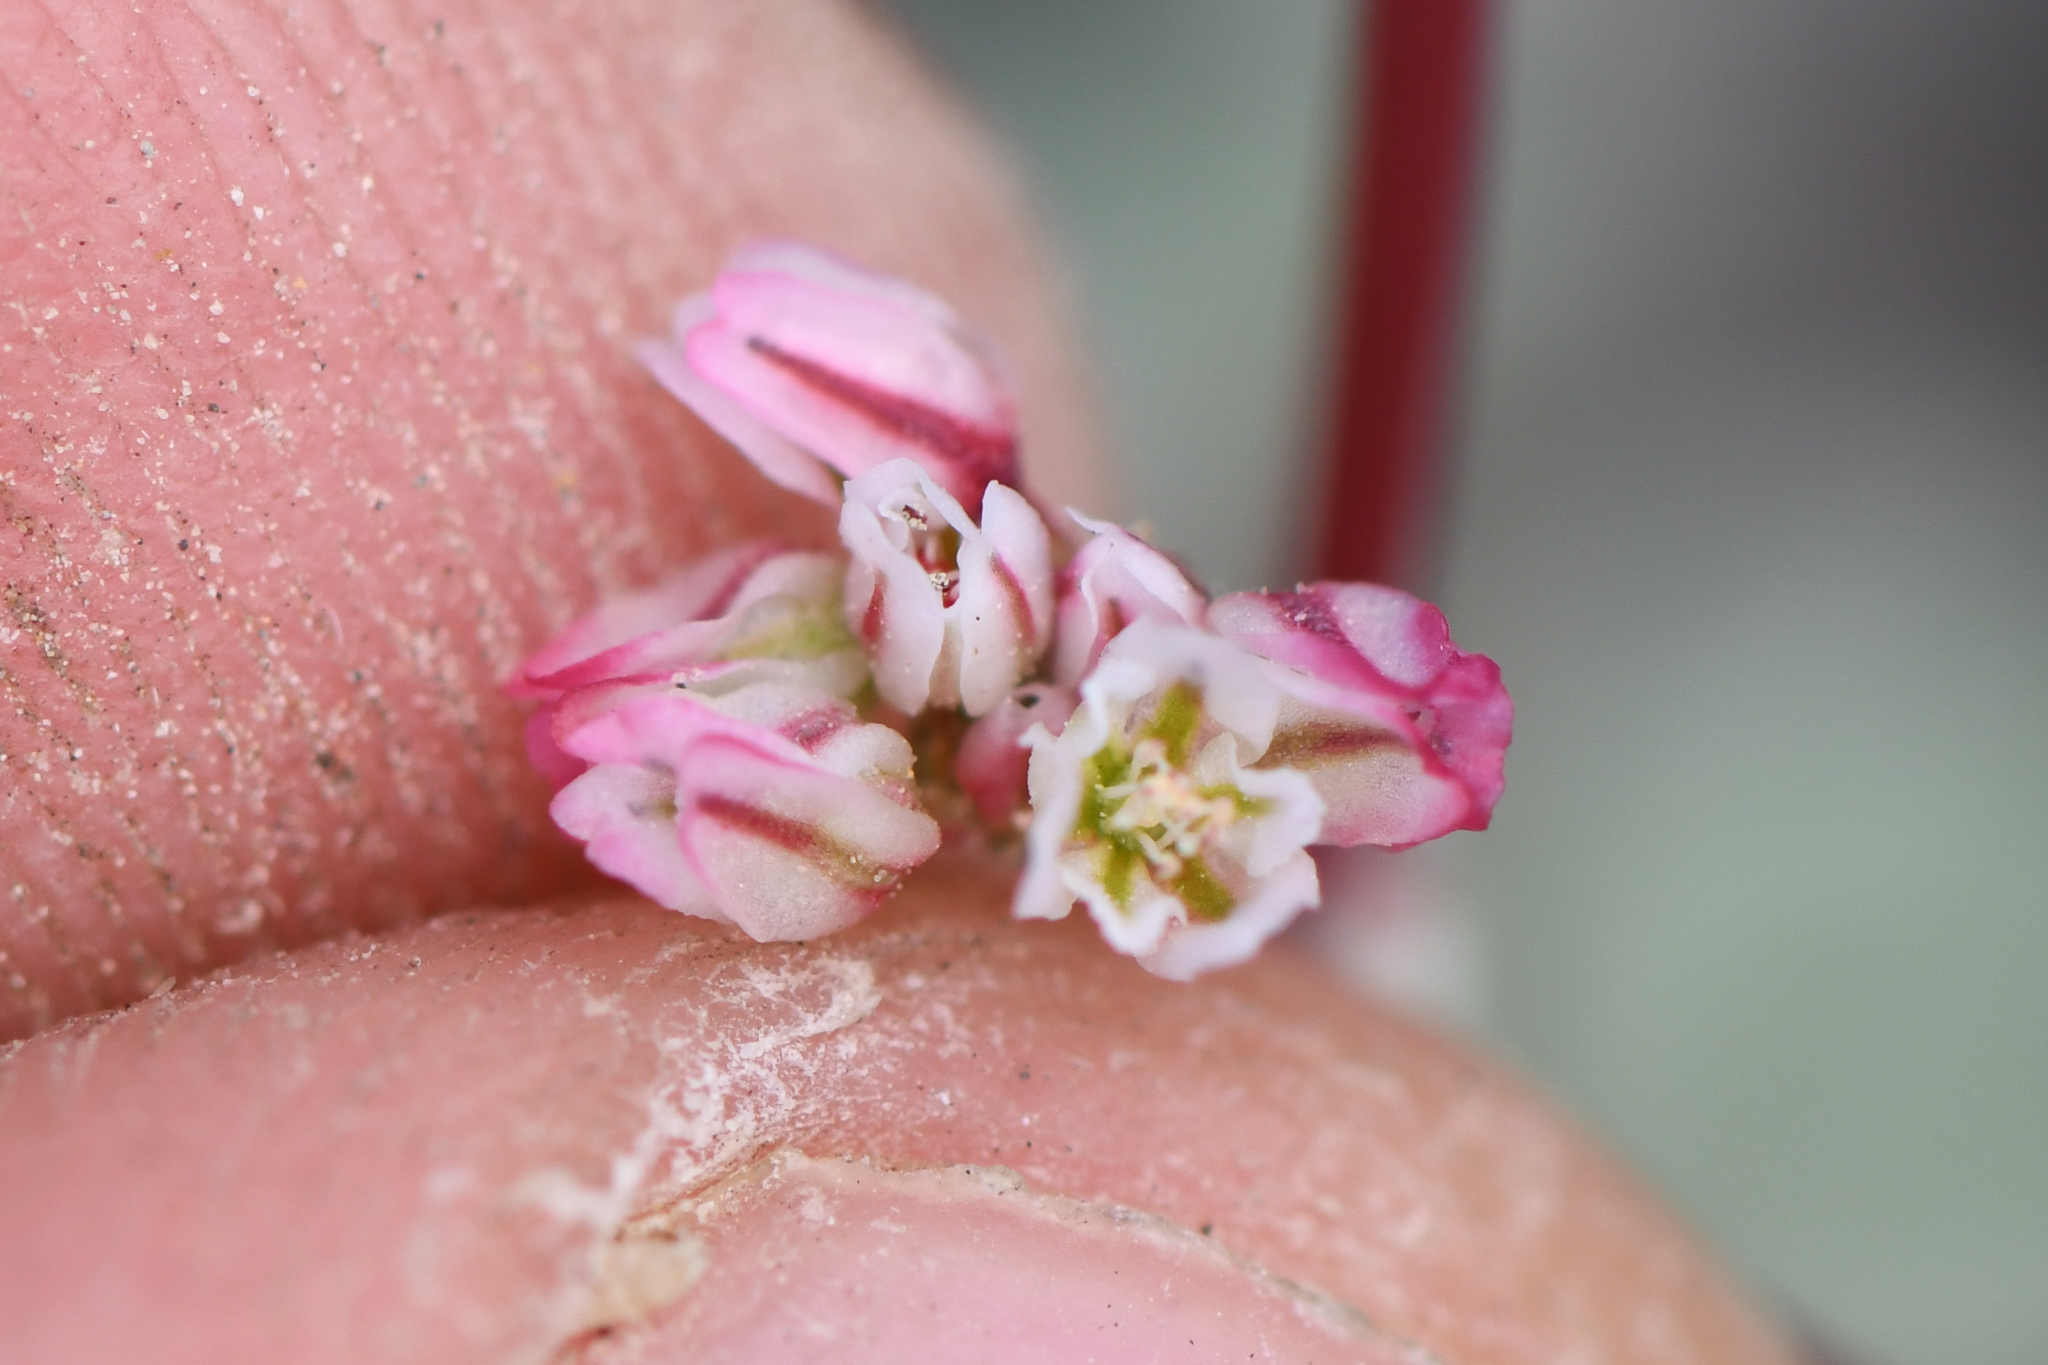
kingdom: Plantae
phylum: Tracheophyta
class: Magnoliopsida
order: Caryophyllales
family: Polygonaceae
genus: Eriogonum
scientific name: Eriogonum nutans
